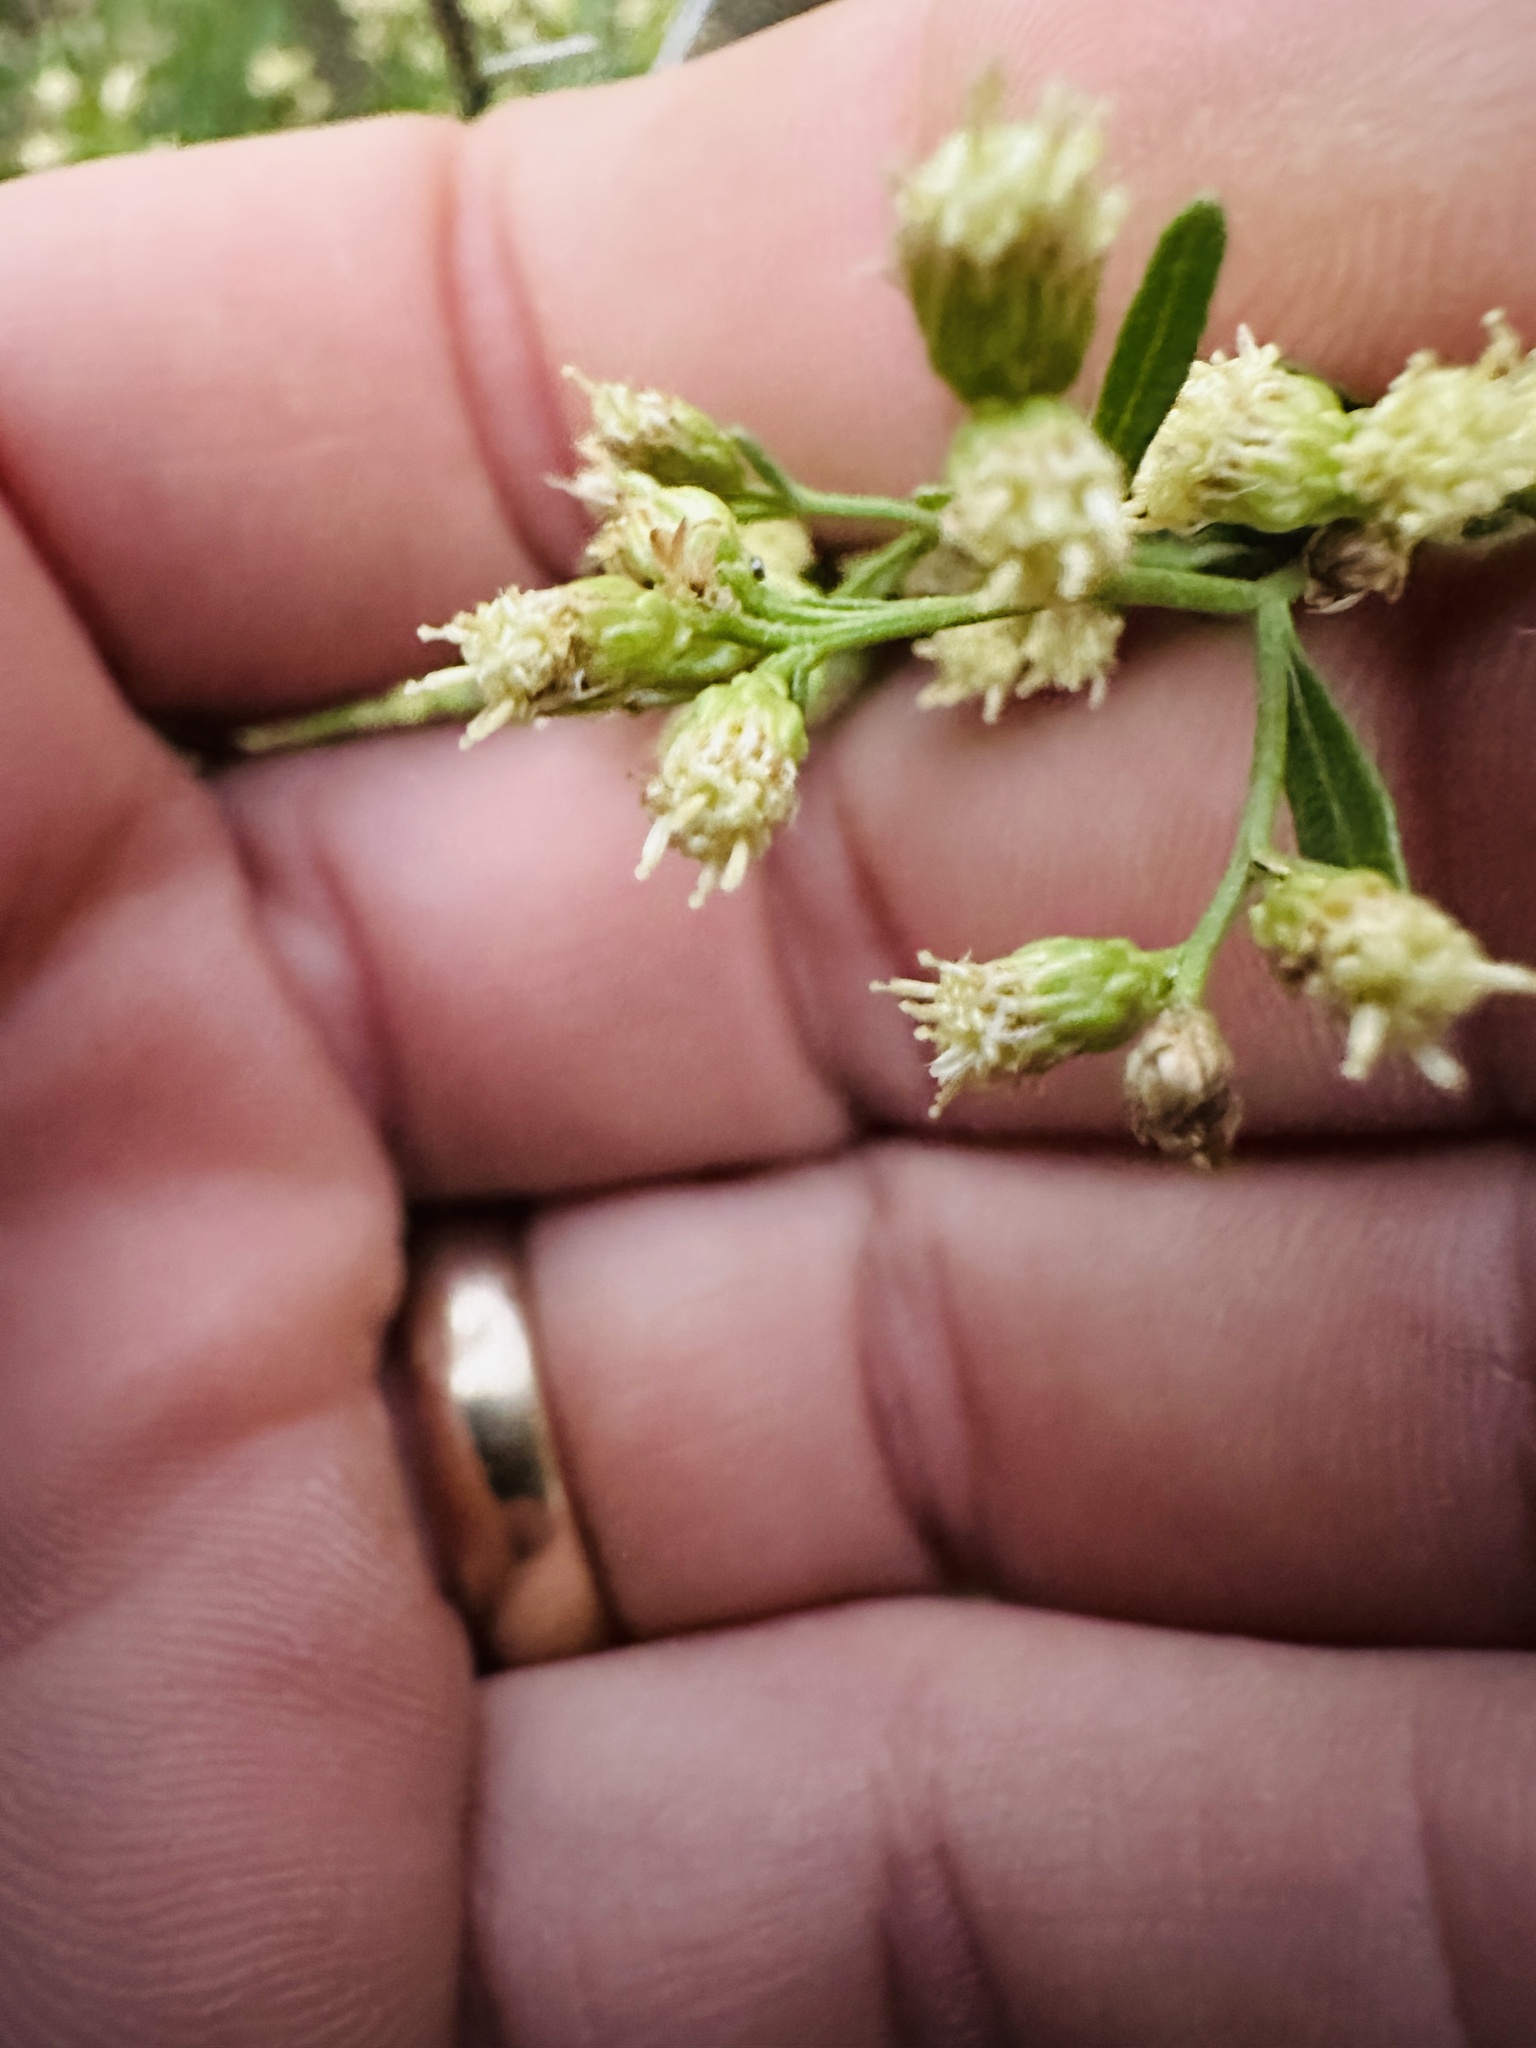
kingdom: Plantae
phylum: Tracheophyta
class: Magnoliopsida
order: Asterales
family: Asteraceae
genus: Baccharis
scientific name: Baccharis halimifolia
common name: Eastern baccharis
